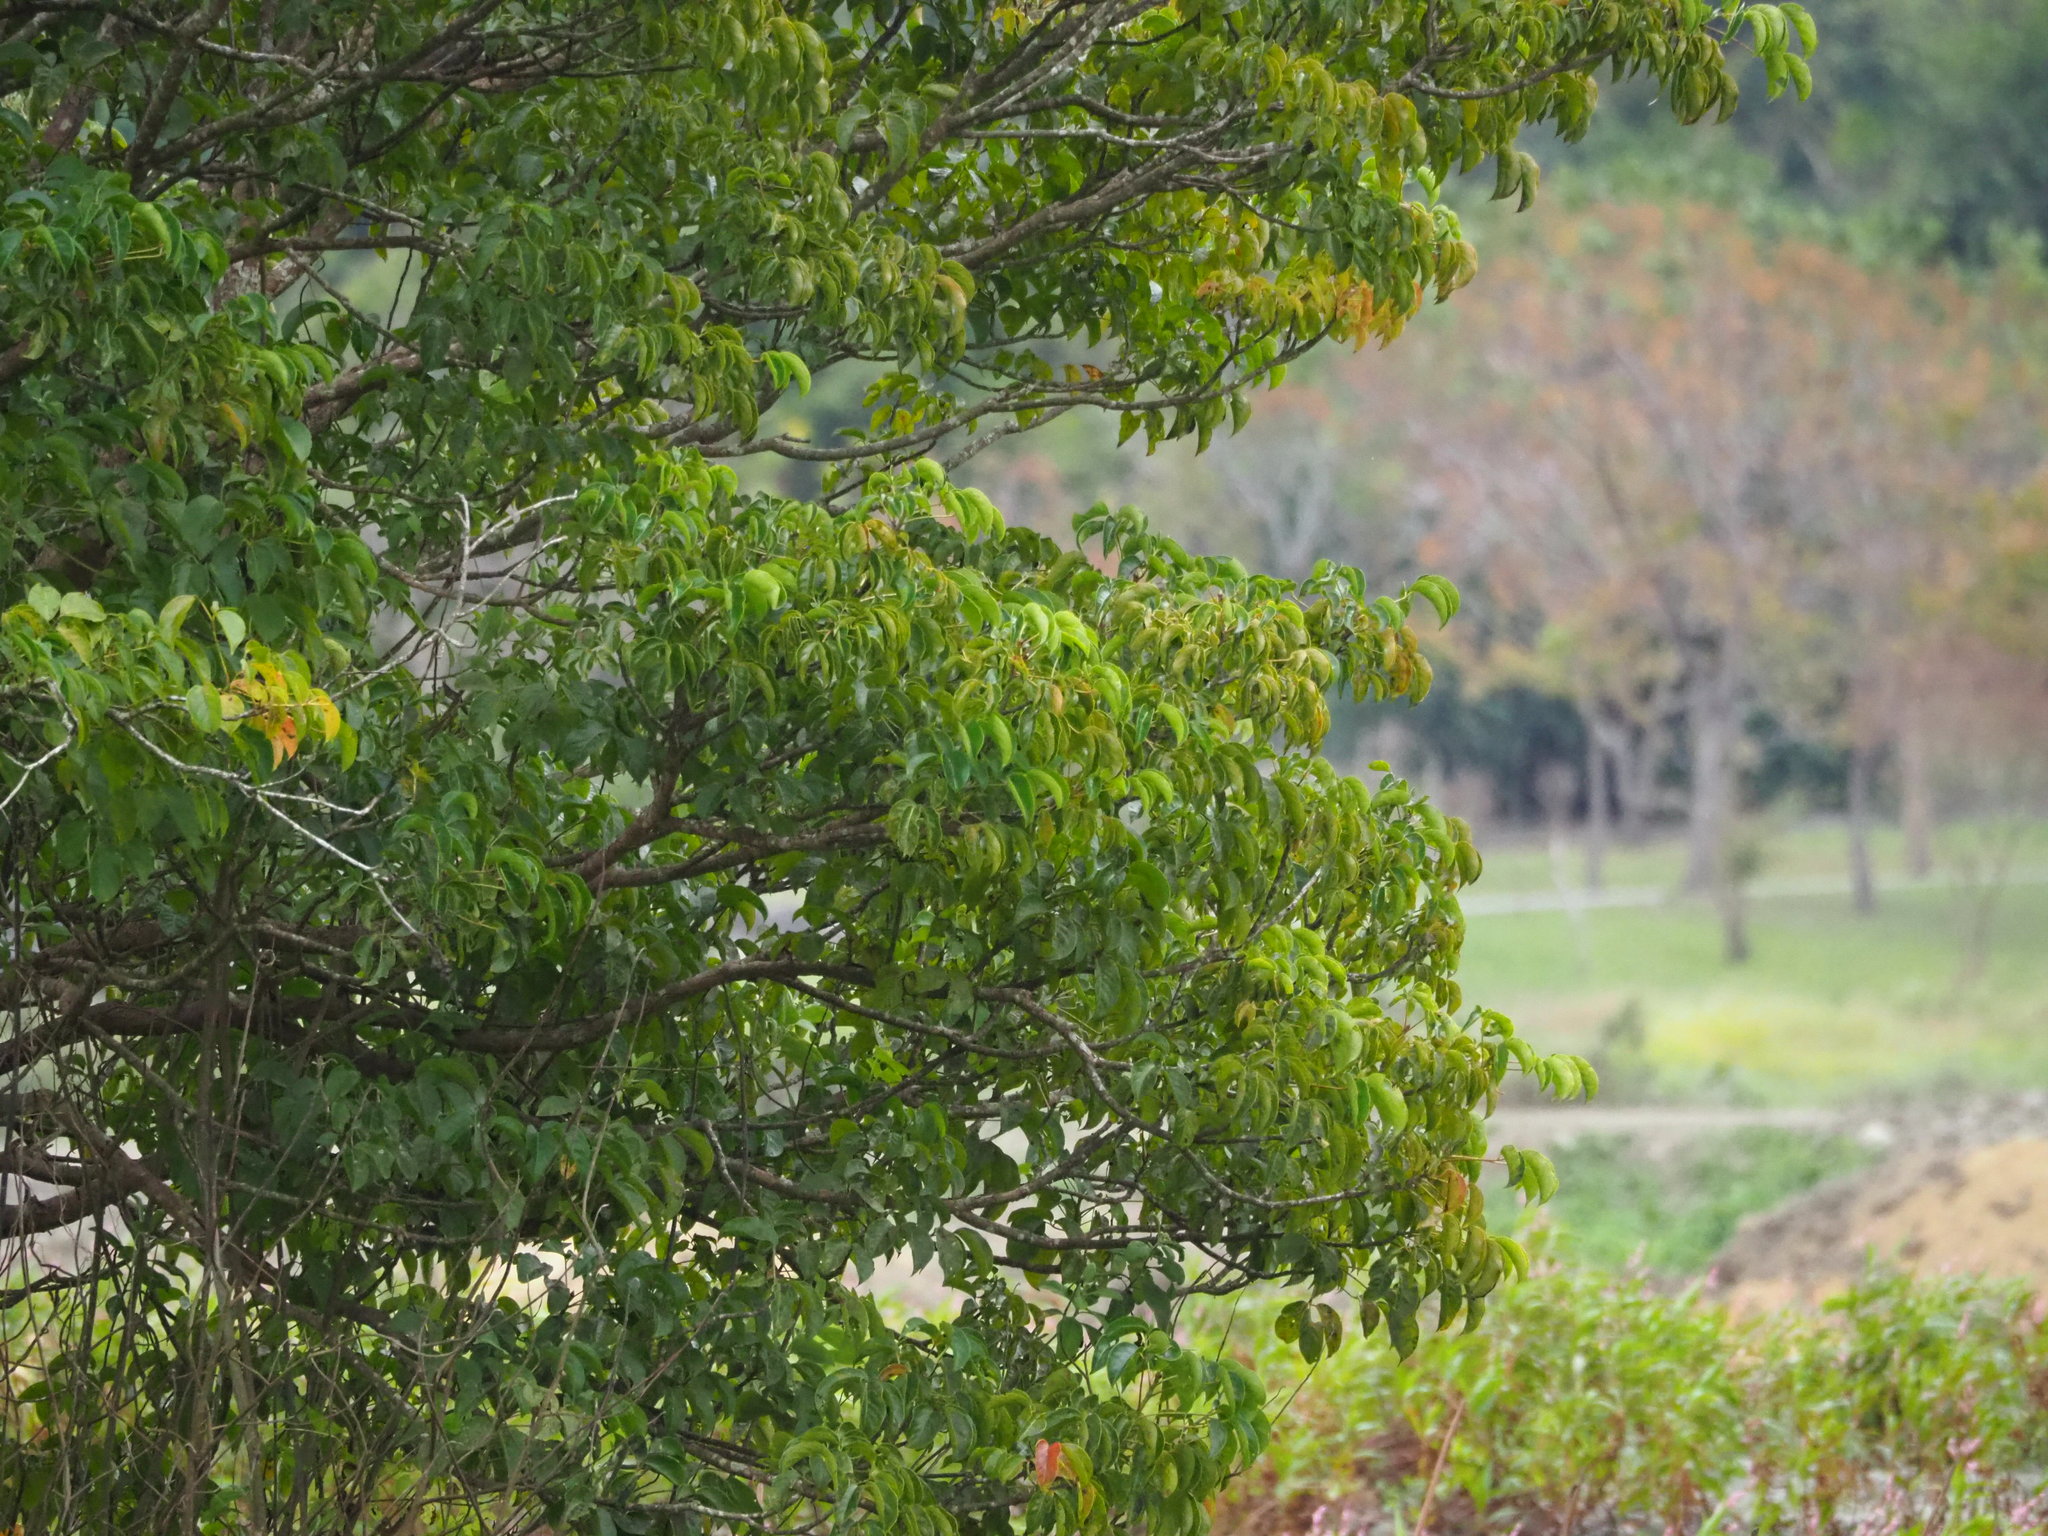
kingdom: Plantae
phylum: Tracheophyta
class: Magnoliopsida
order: Malpighiales
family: Phyllanthaceae
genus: Bischofia
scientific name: Bischofia javanica
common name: Javanese bishopwood
